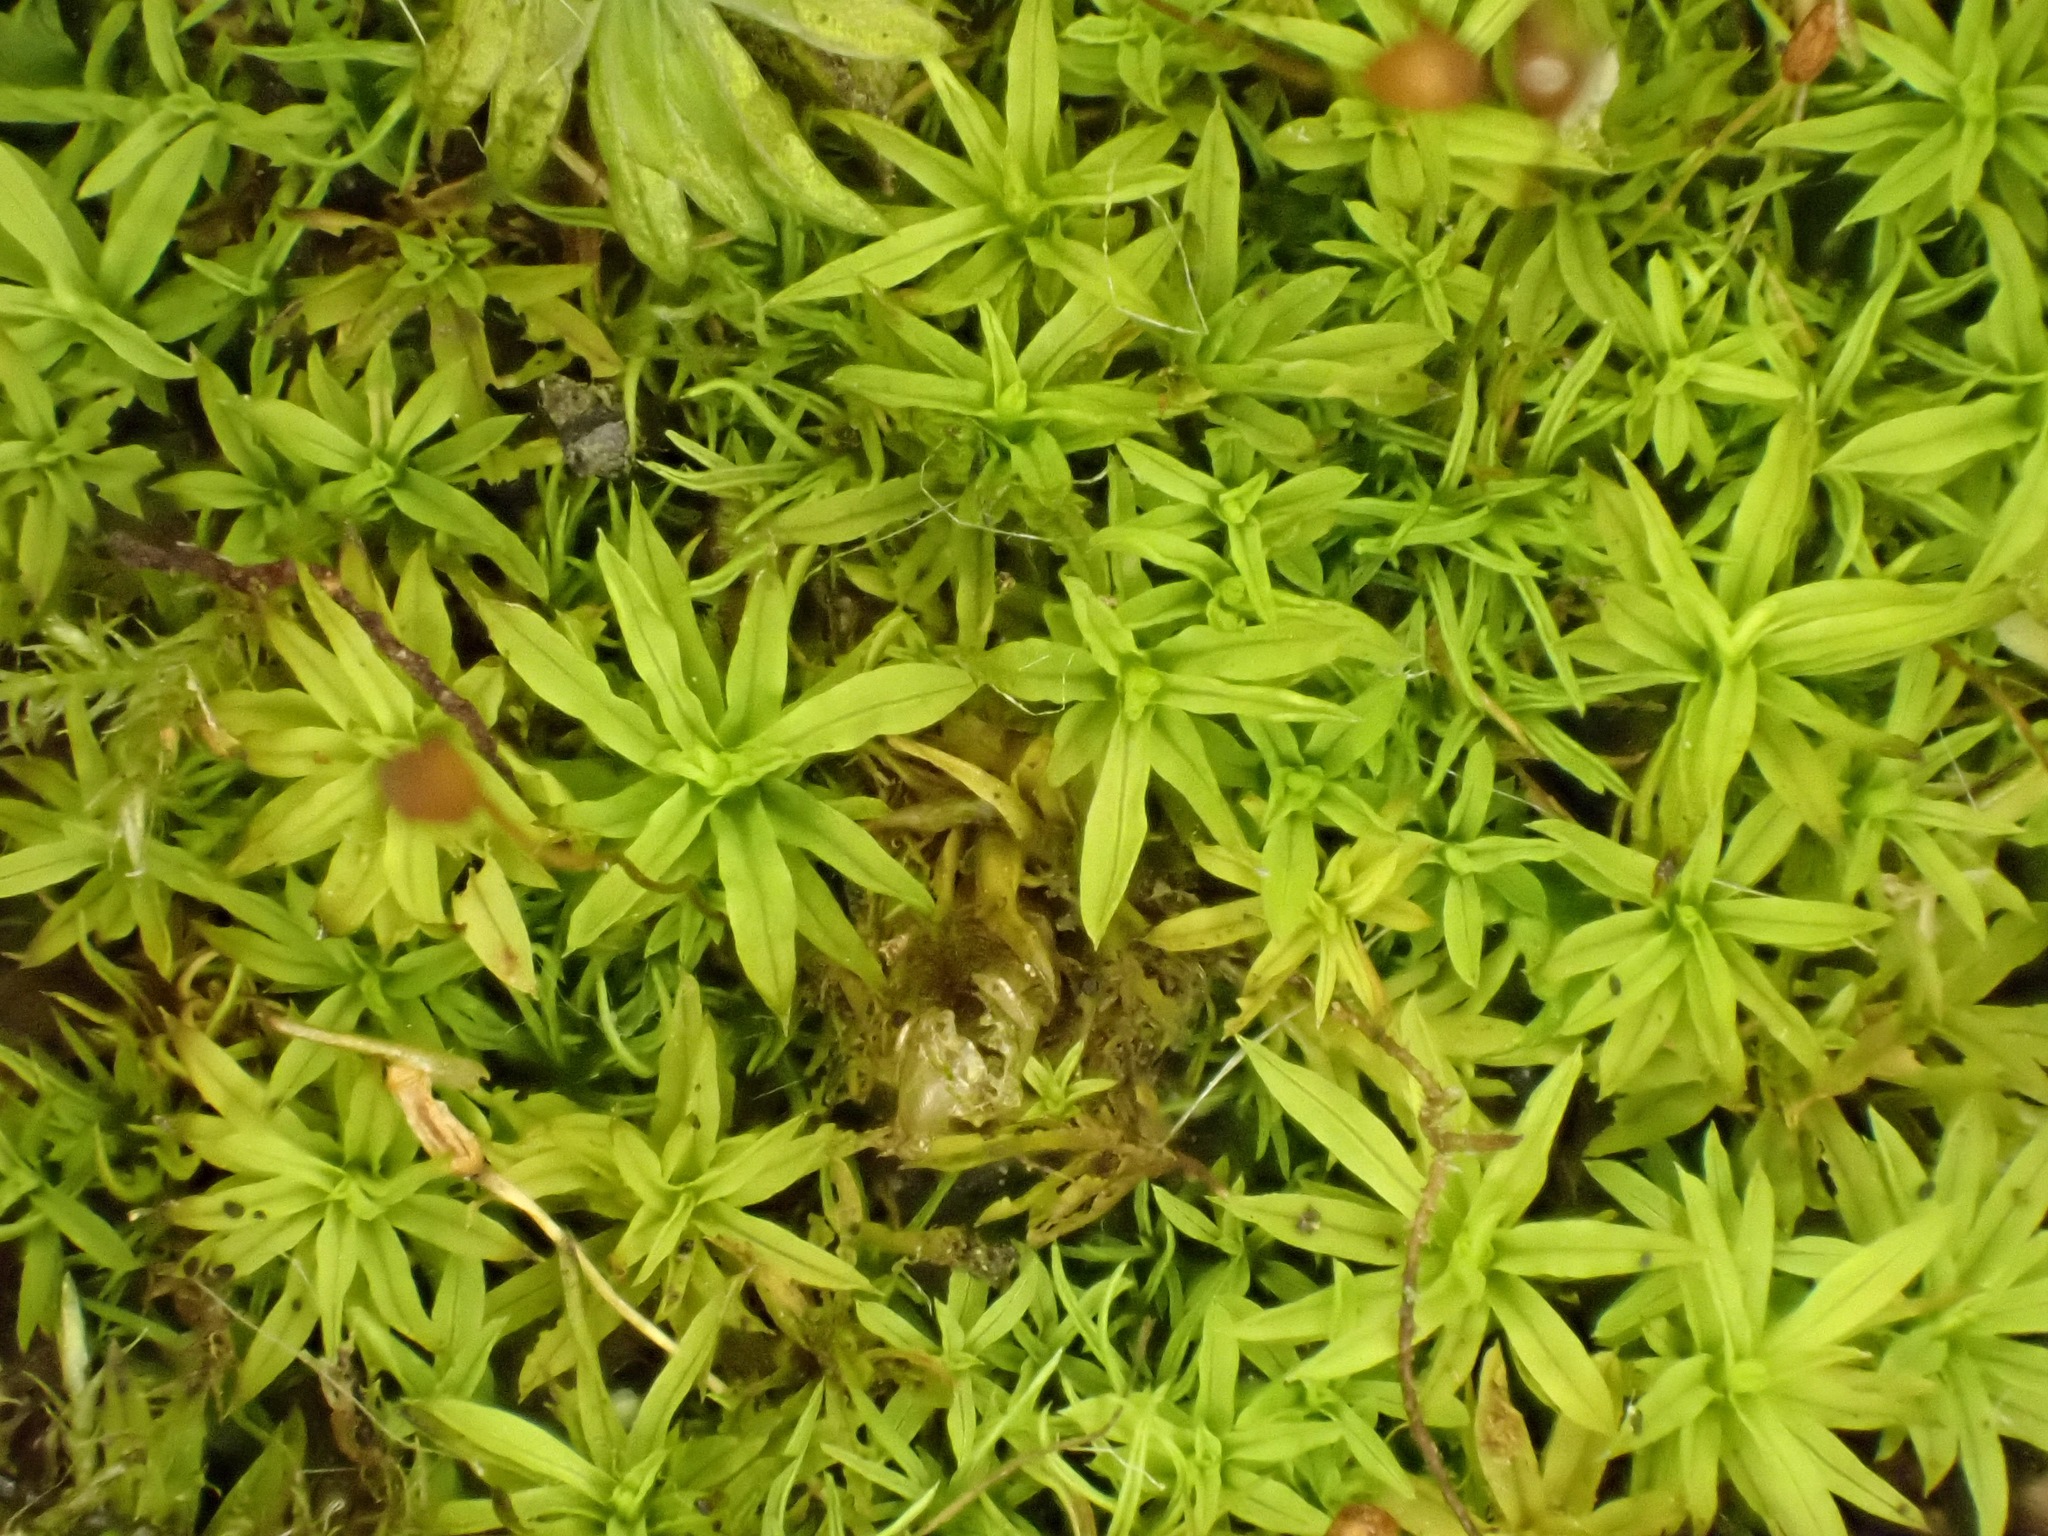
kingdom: Plantae
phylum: Bryophyta
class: Bryopsida
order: Pottiales
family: Pottiaceae
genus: Trichostomum
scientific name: Trichostomum brachydontium
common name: Variable crisp-moss
